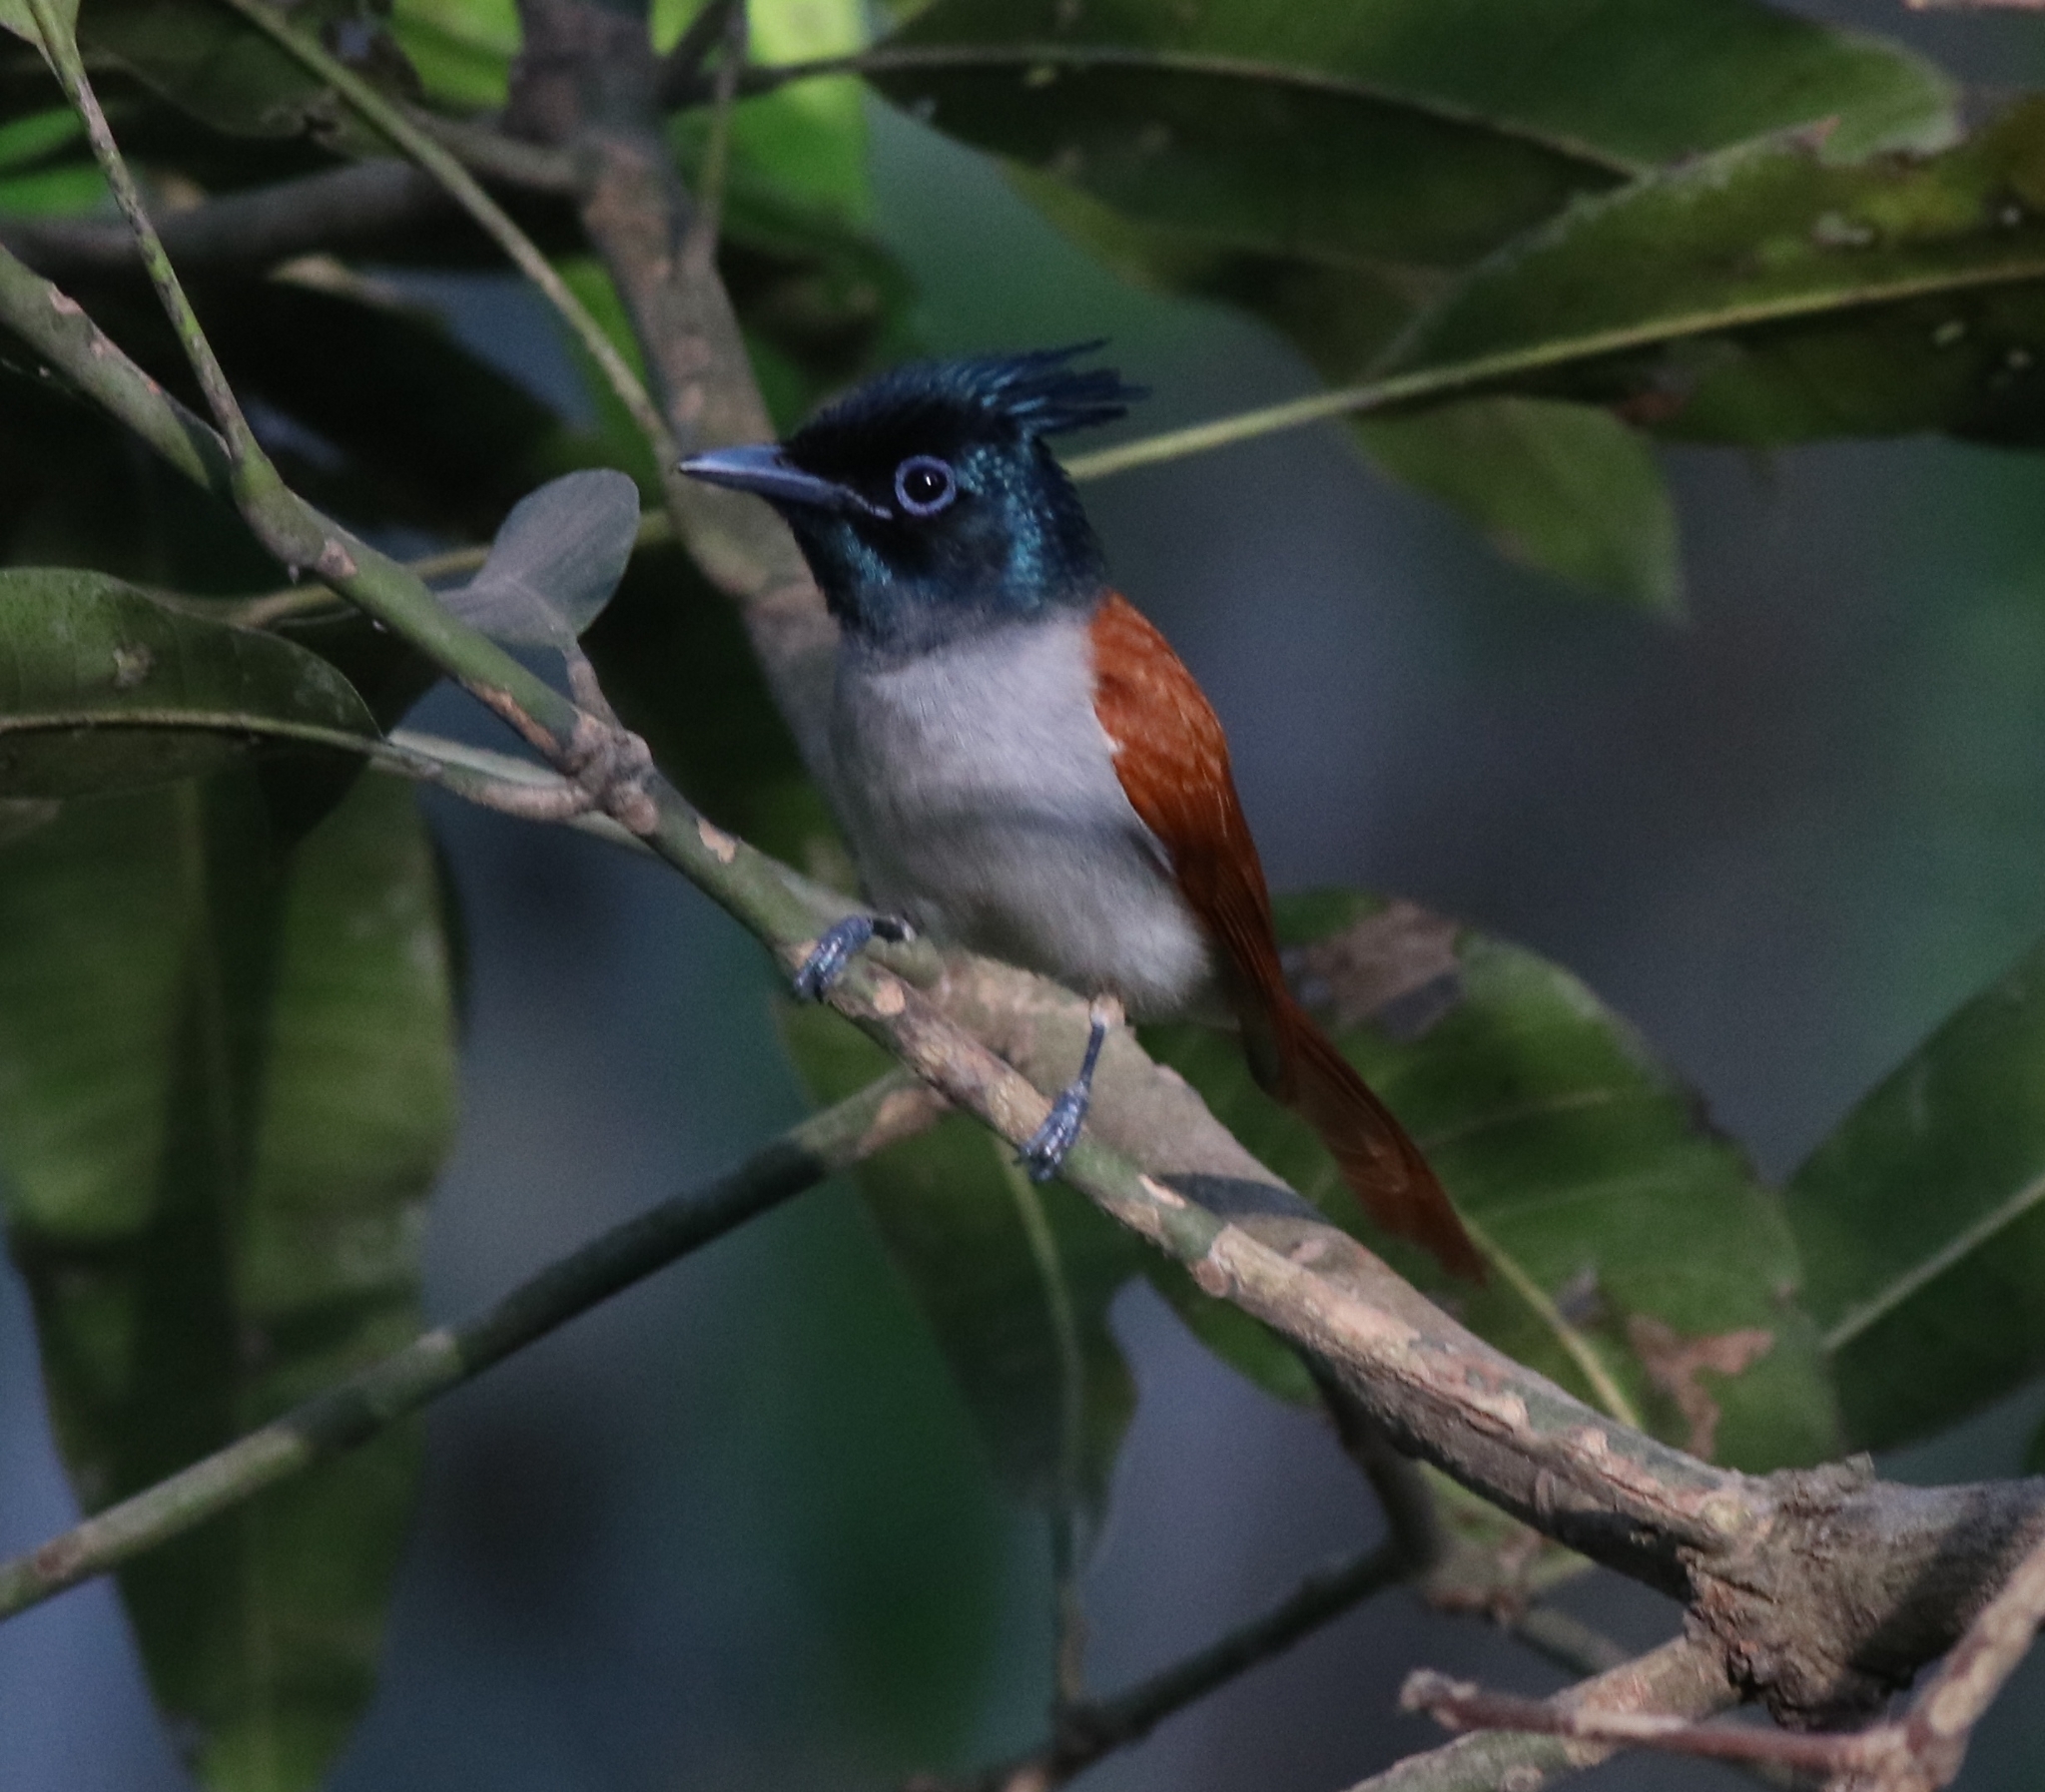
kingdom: Animalia
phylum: Chordata
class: Aves
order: Passeriformes
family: Monarchidae
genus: Terpsiphone
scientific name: Terpsiphone paradisi
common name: Indian paradise flycatcher
